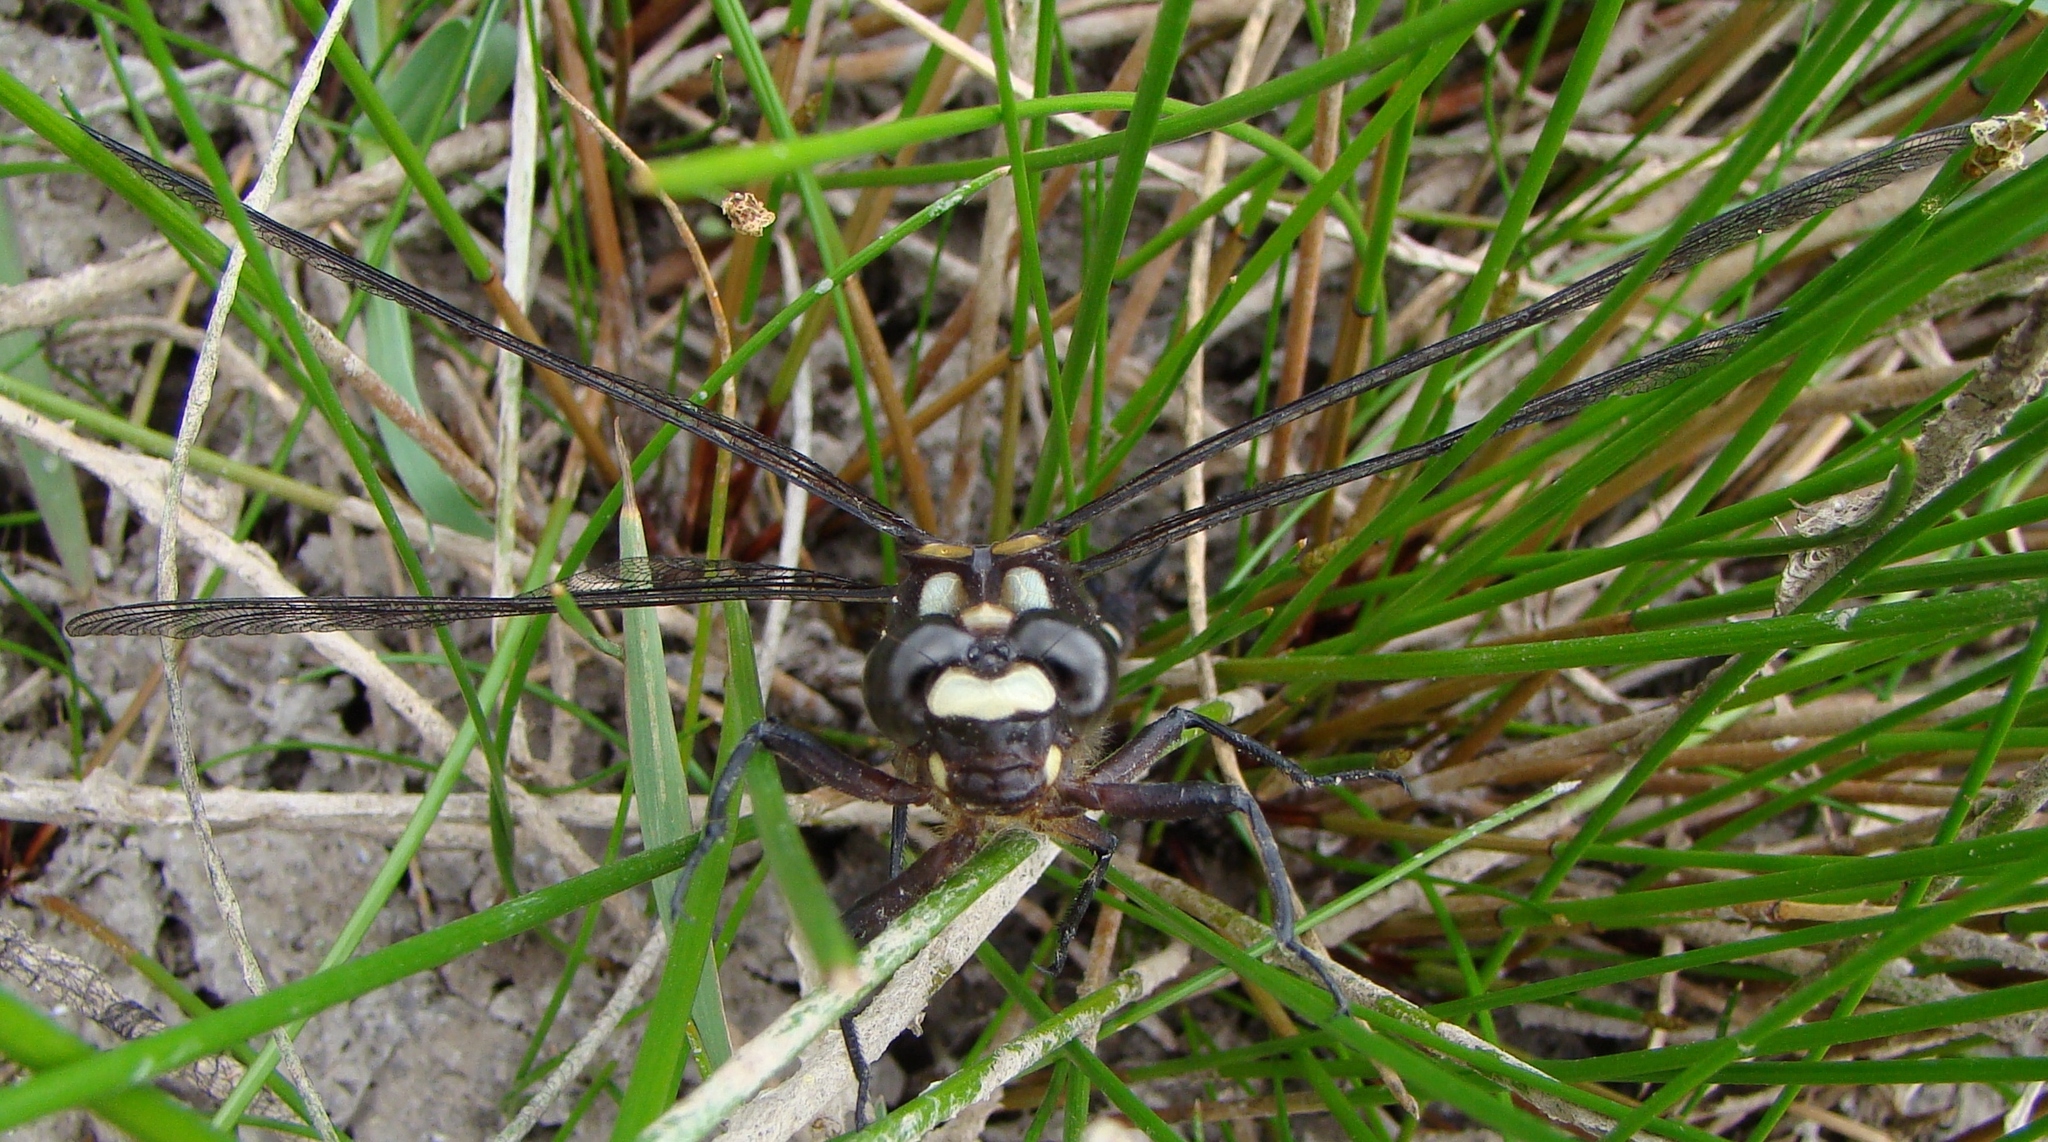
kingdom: Animalia
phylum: Arthropoda
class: Insecta
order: Odonata
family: Petaluridae
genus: Uropetala
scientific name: Uropetala carovei
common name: Bush giant dragonfly
